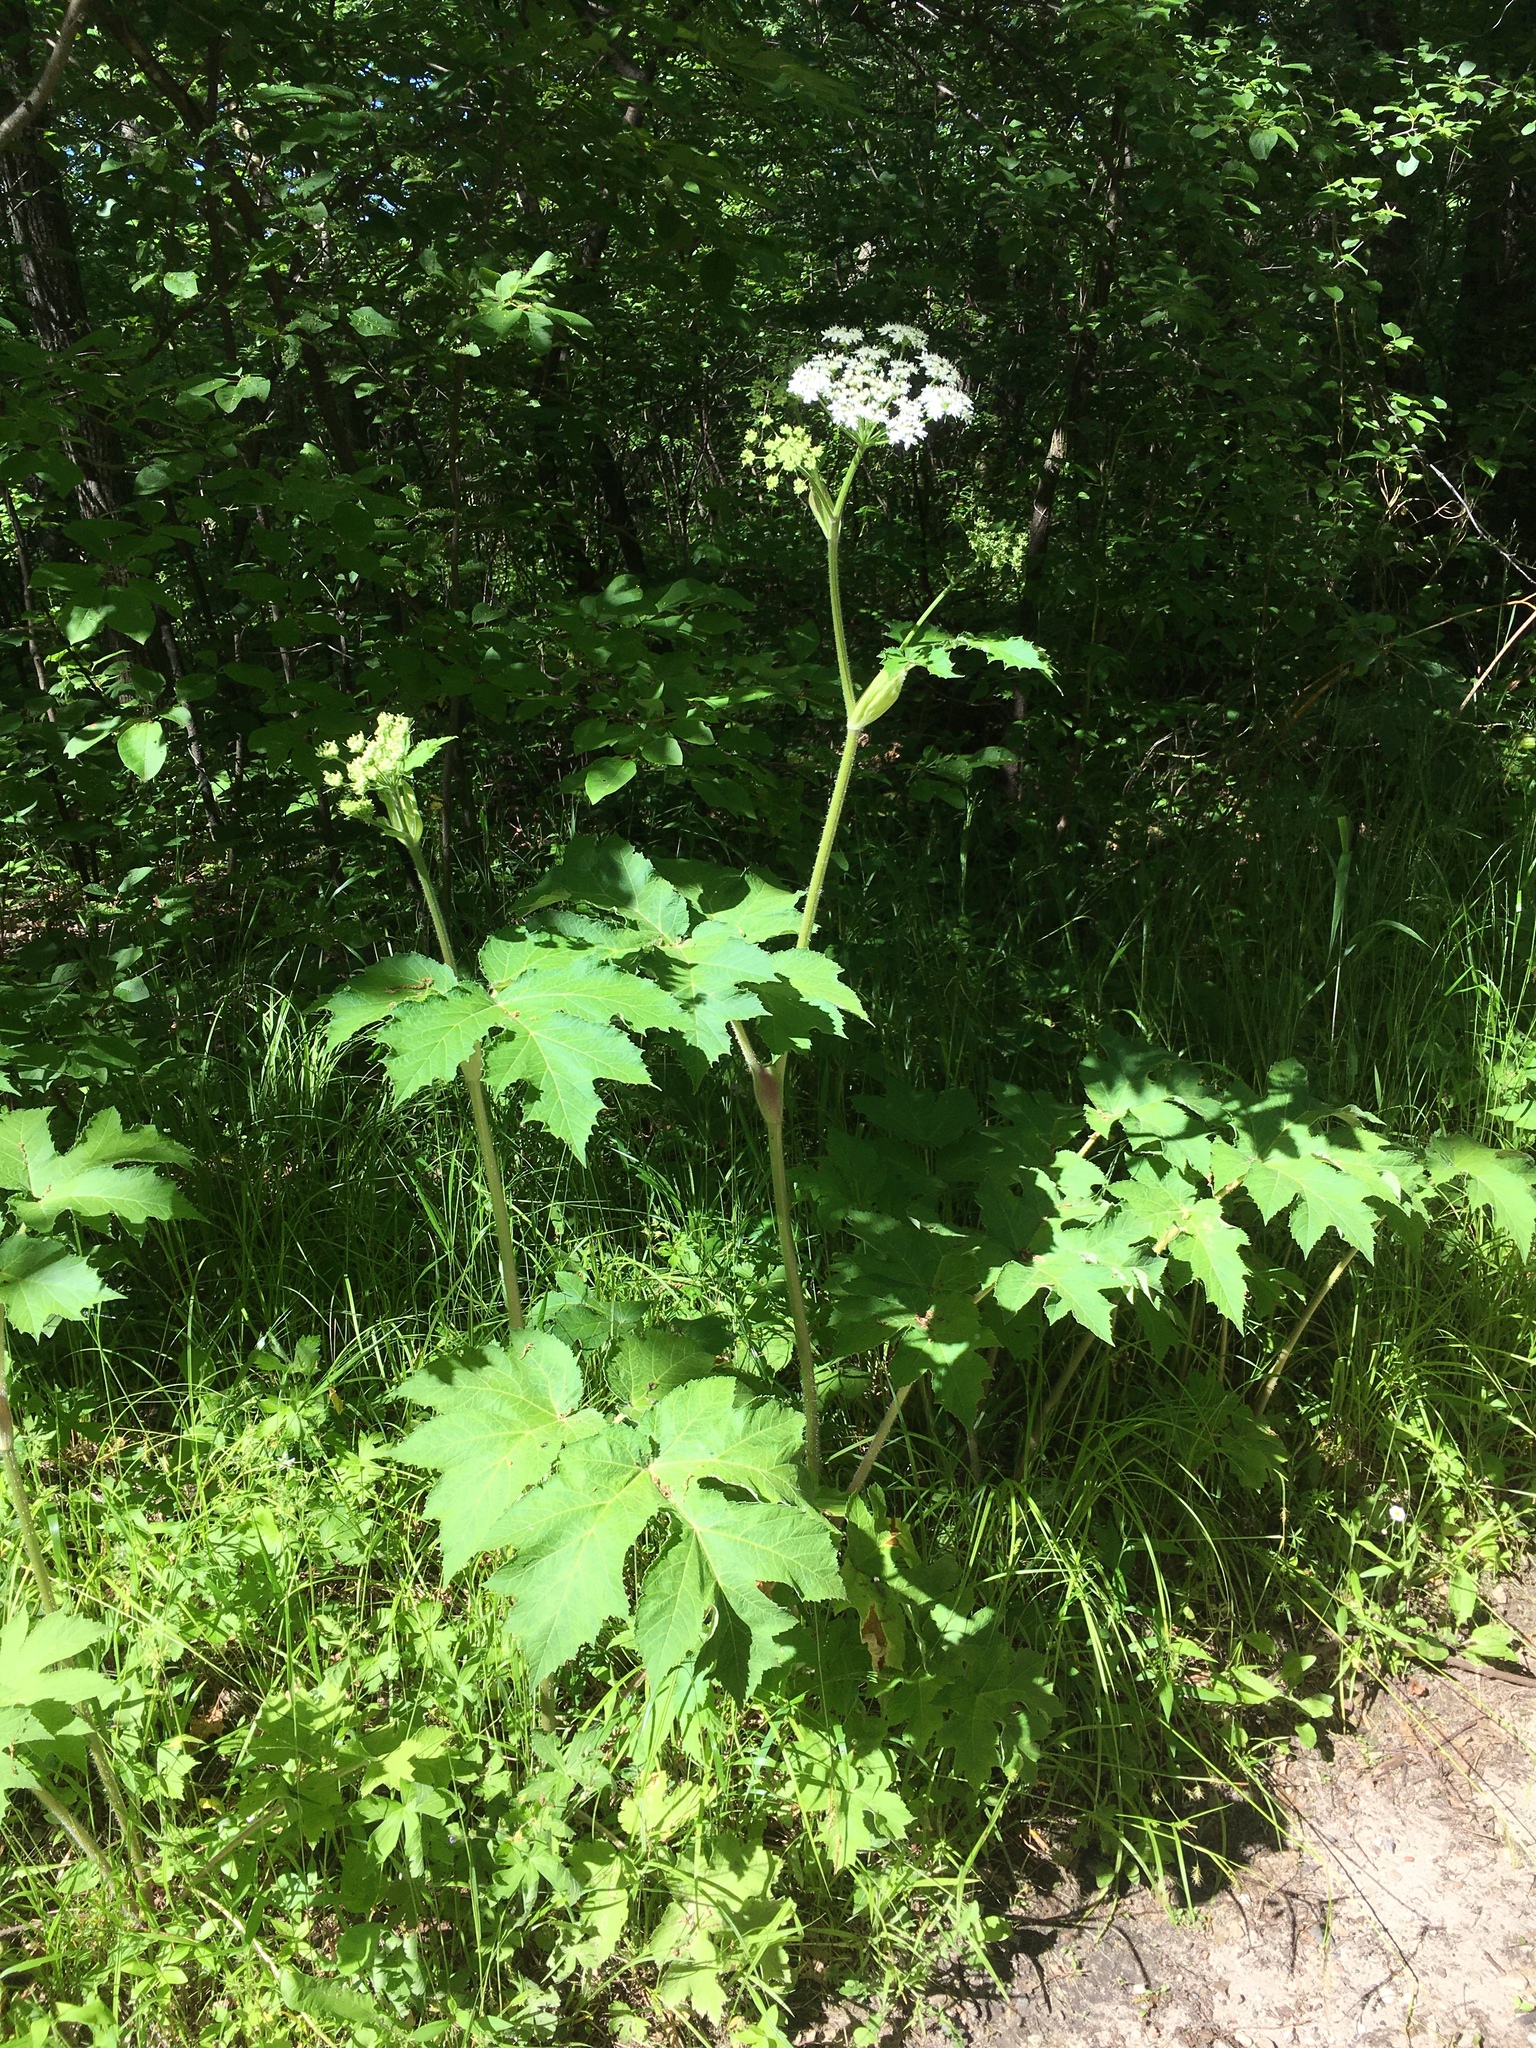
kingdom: Plantae
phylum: Tracheophyta
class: Magnoliopsida
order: Apiales
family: Apiaceae
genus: Heracleum
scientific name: Heracleum maximum
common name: American cow parsnip
